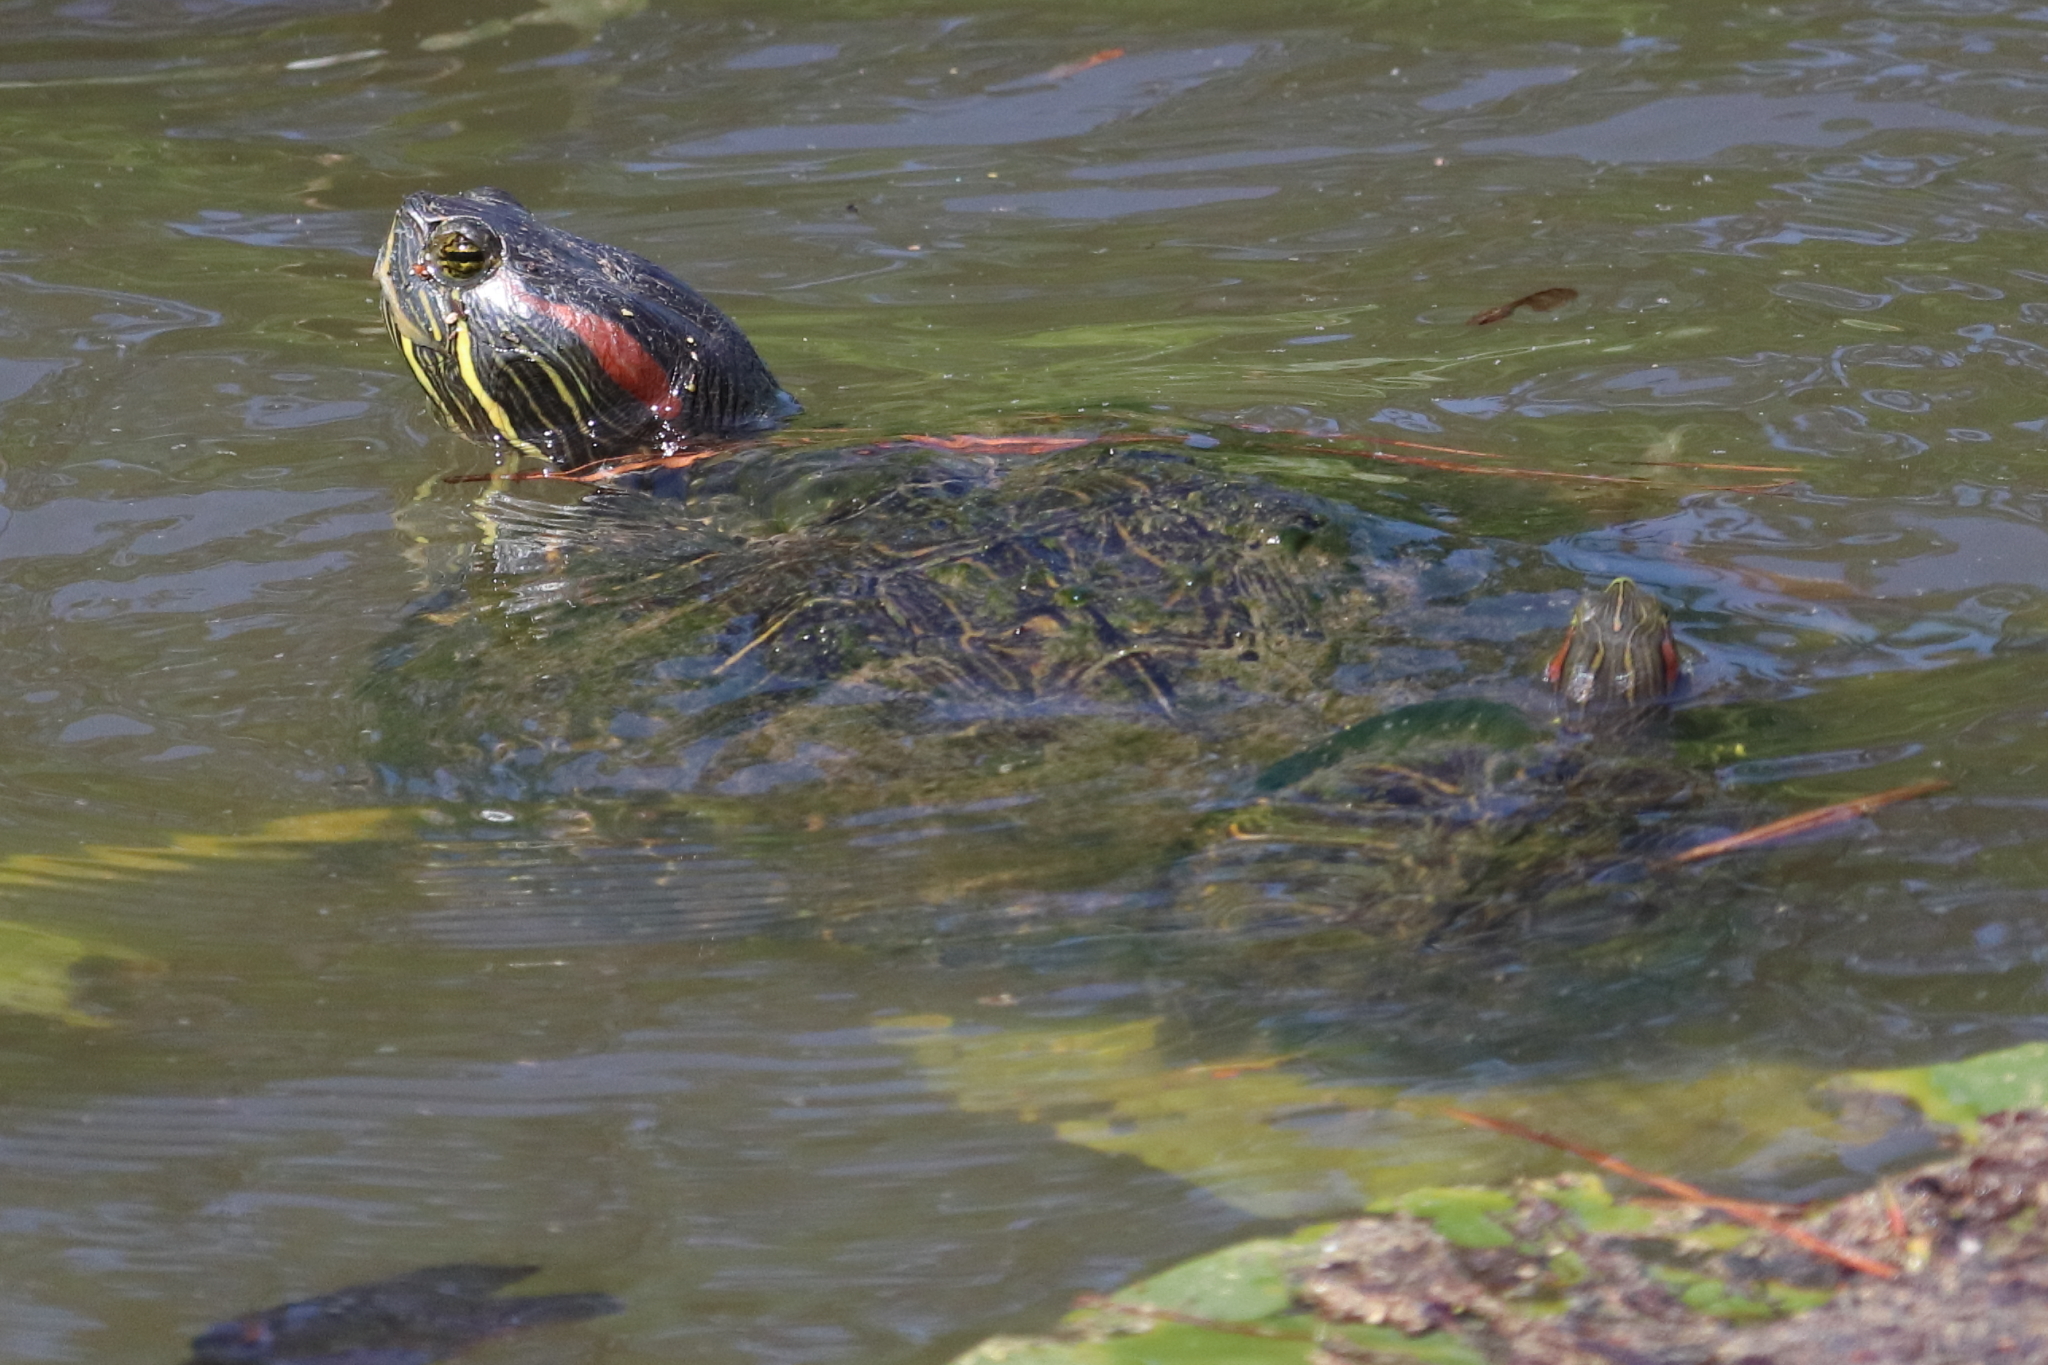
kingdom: Animalia
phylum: Chordata
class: Testudines
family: Emydidae
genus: Trachemys
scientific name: Trachemys scripta
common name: Slider
